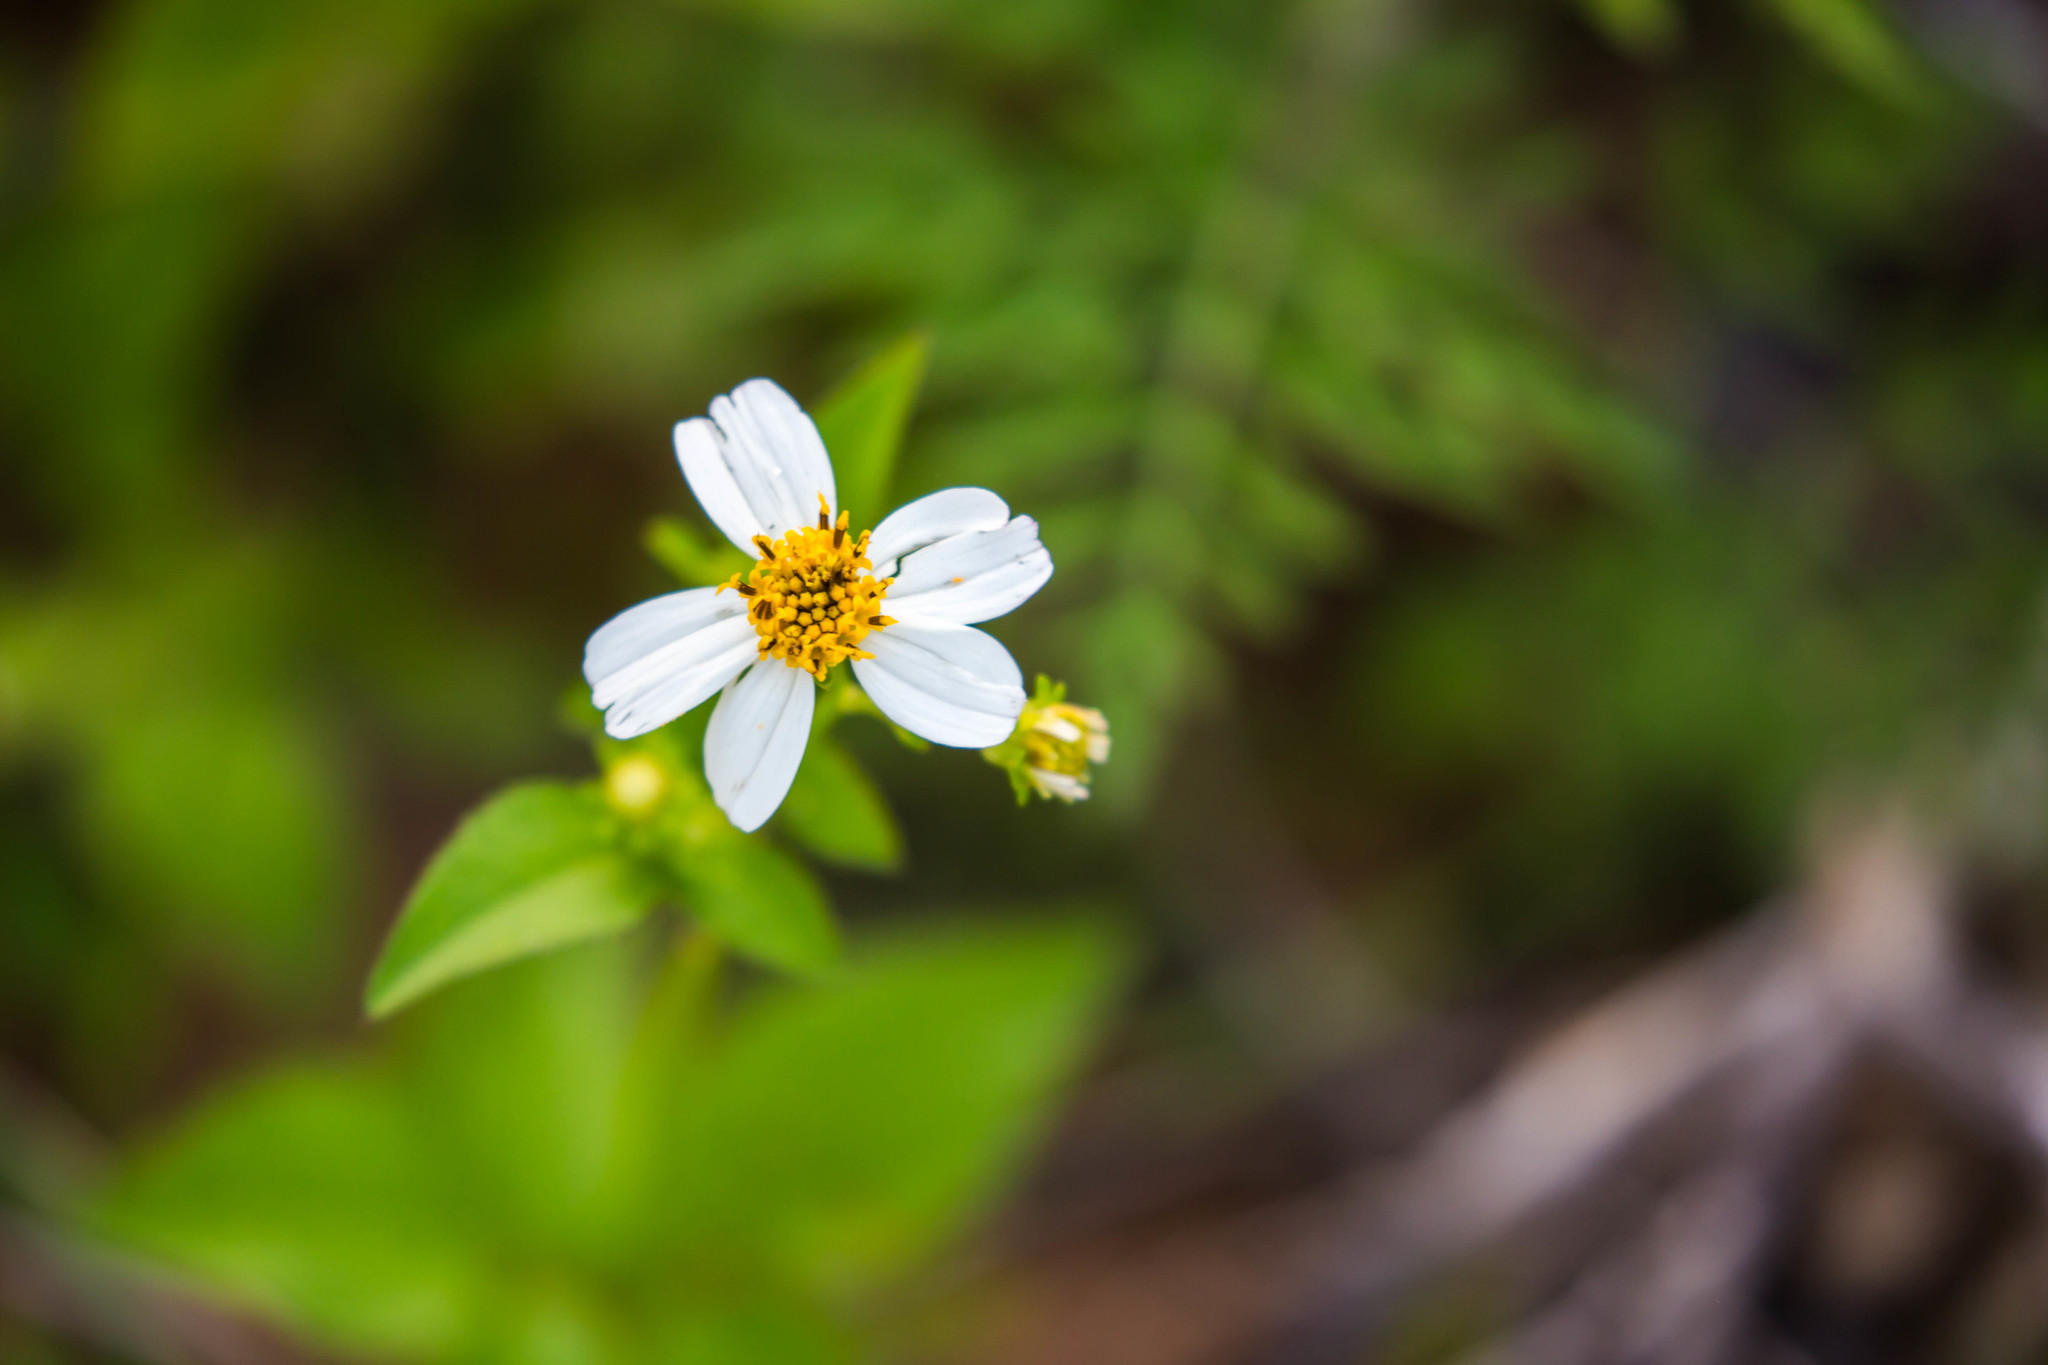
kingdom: Plantae
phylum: Tracheophyta
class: Magnoliopsida
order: Asterales
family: Asteraceae
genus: Bidens
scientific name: Bidens alba
